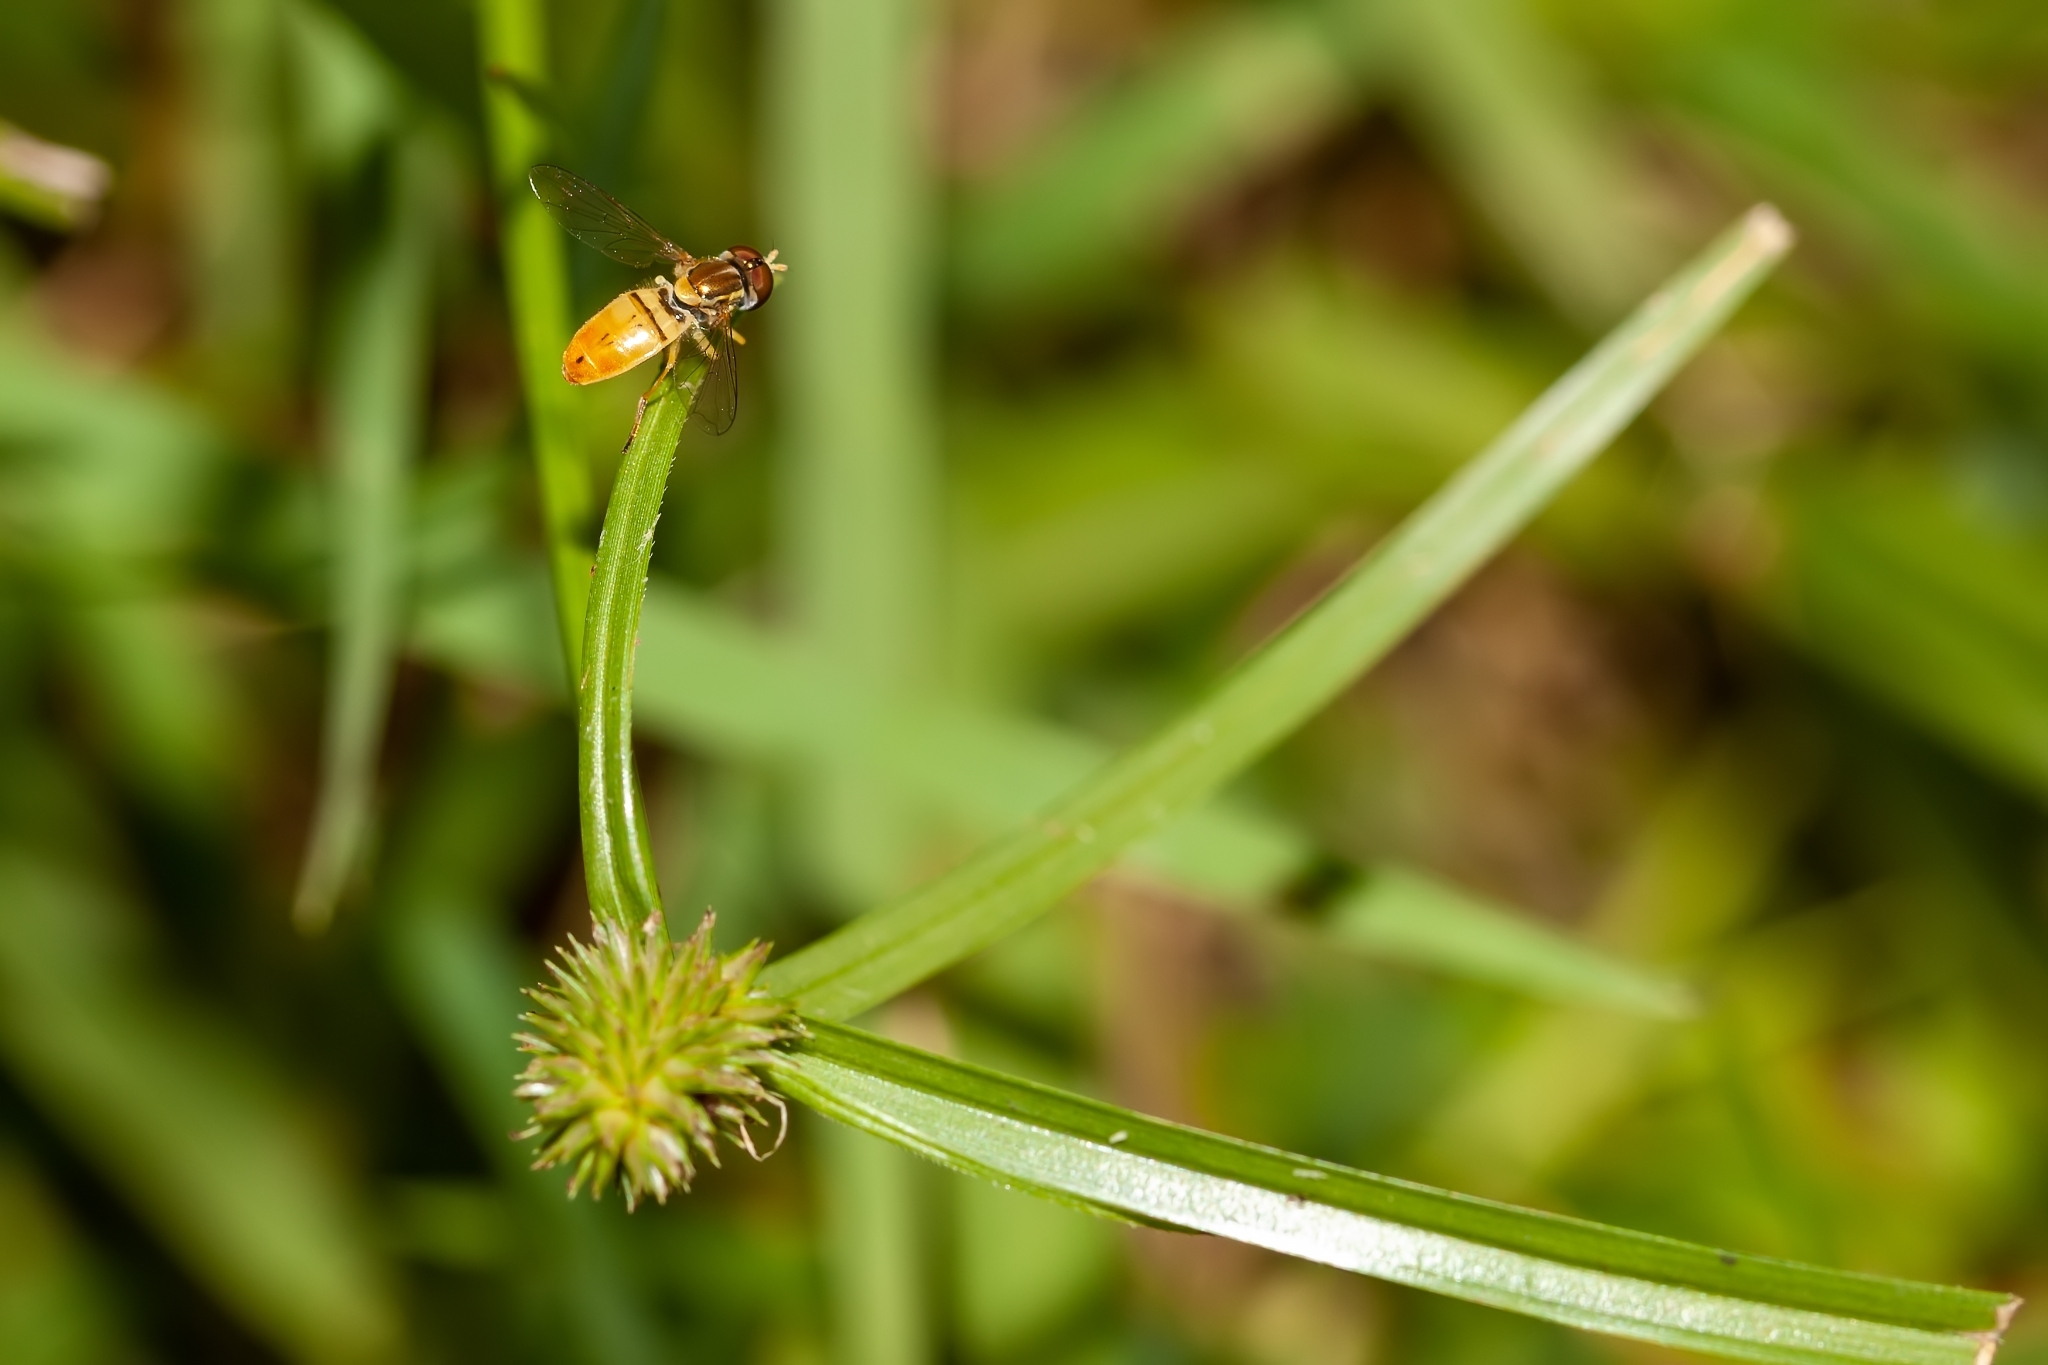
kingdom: Animalia
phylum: Arthropoda
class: Insecta
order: Diptera
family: Syrphidae
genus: Toxomerus
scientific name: Toxomerus marginatus
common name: Syrphid fly
